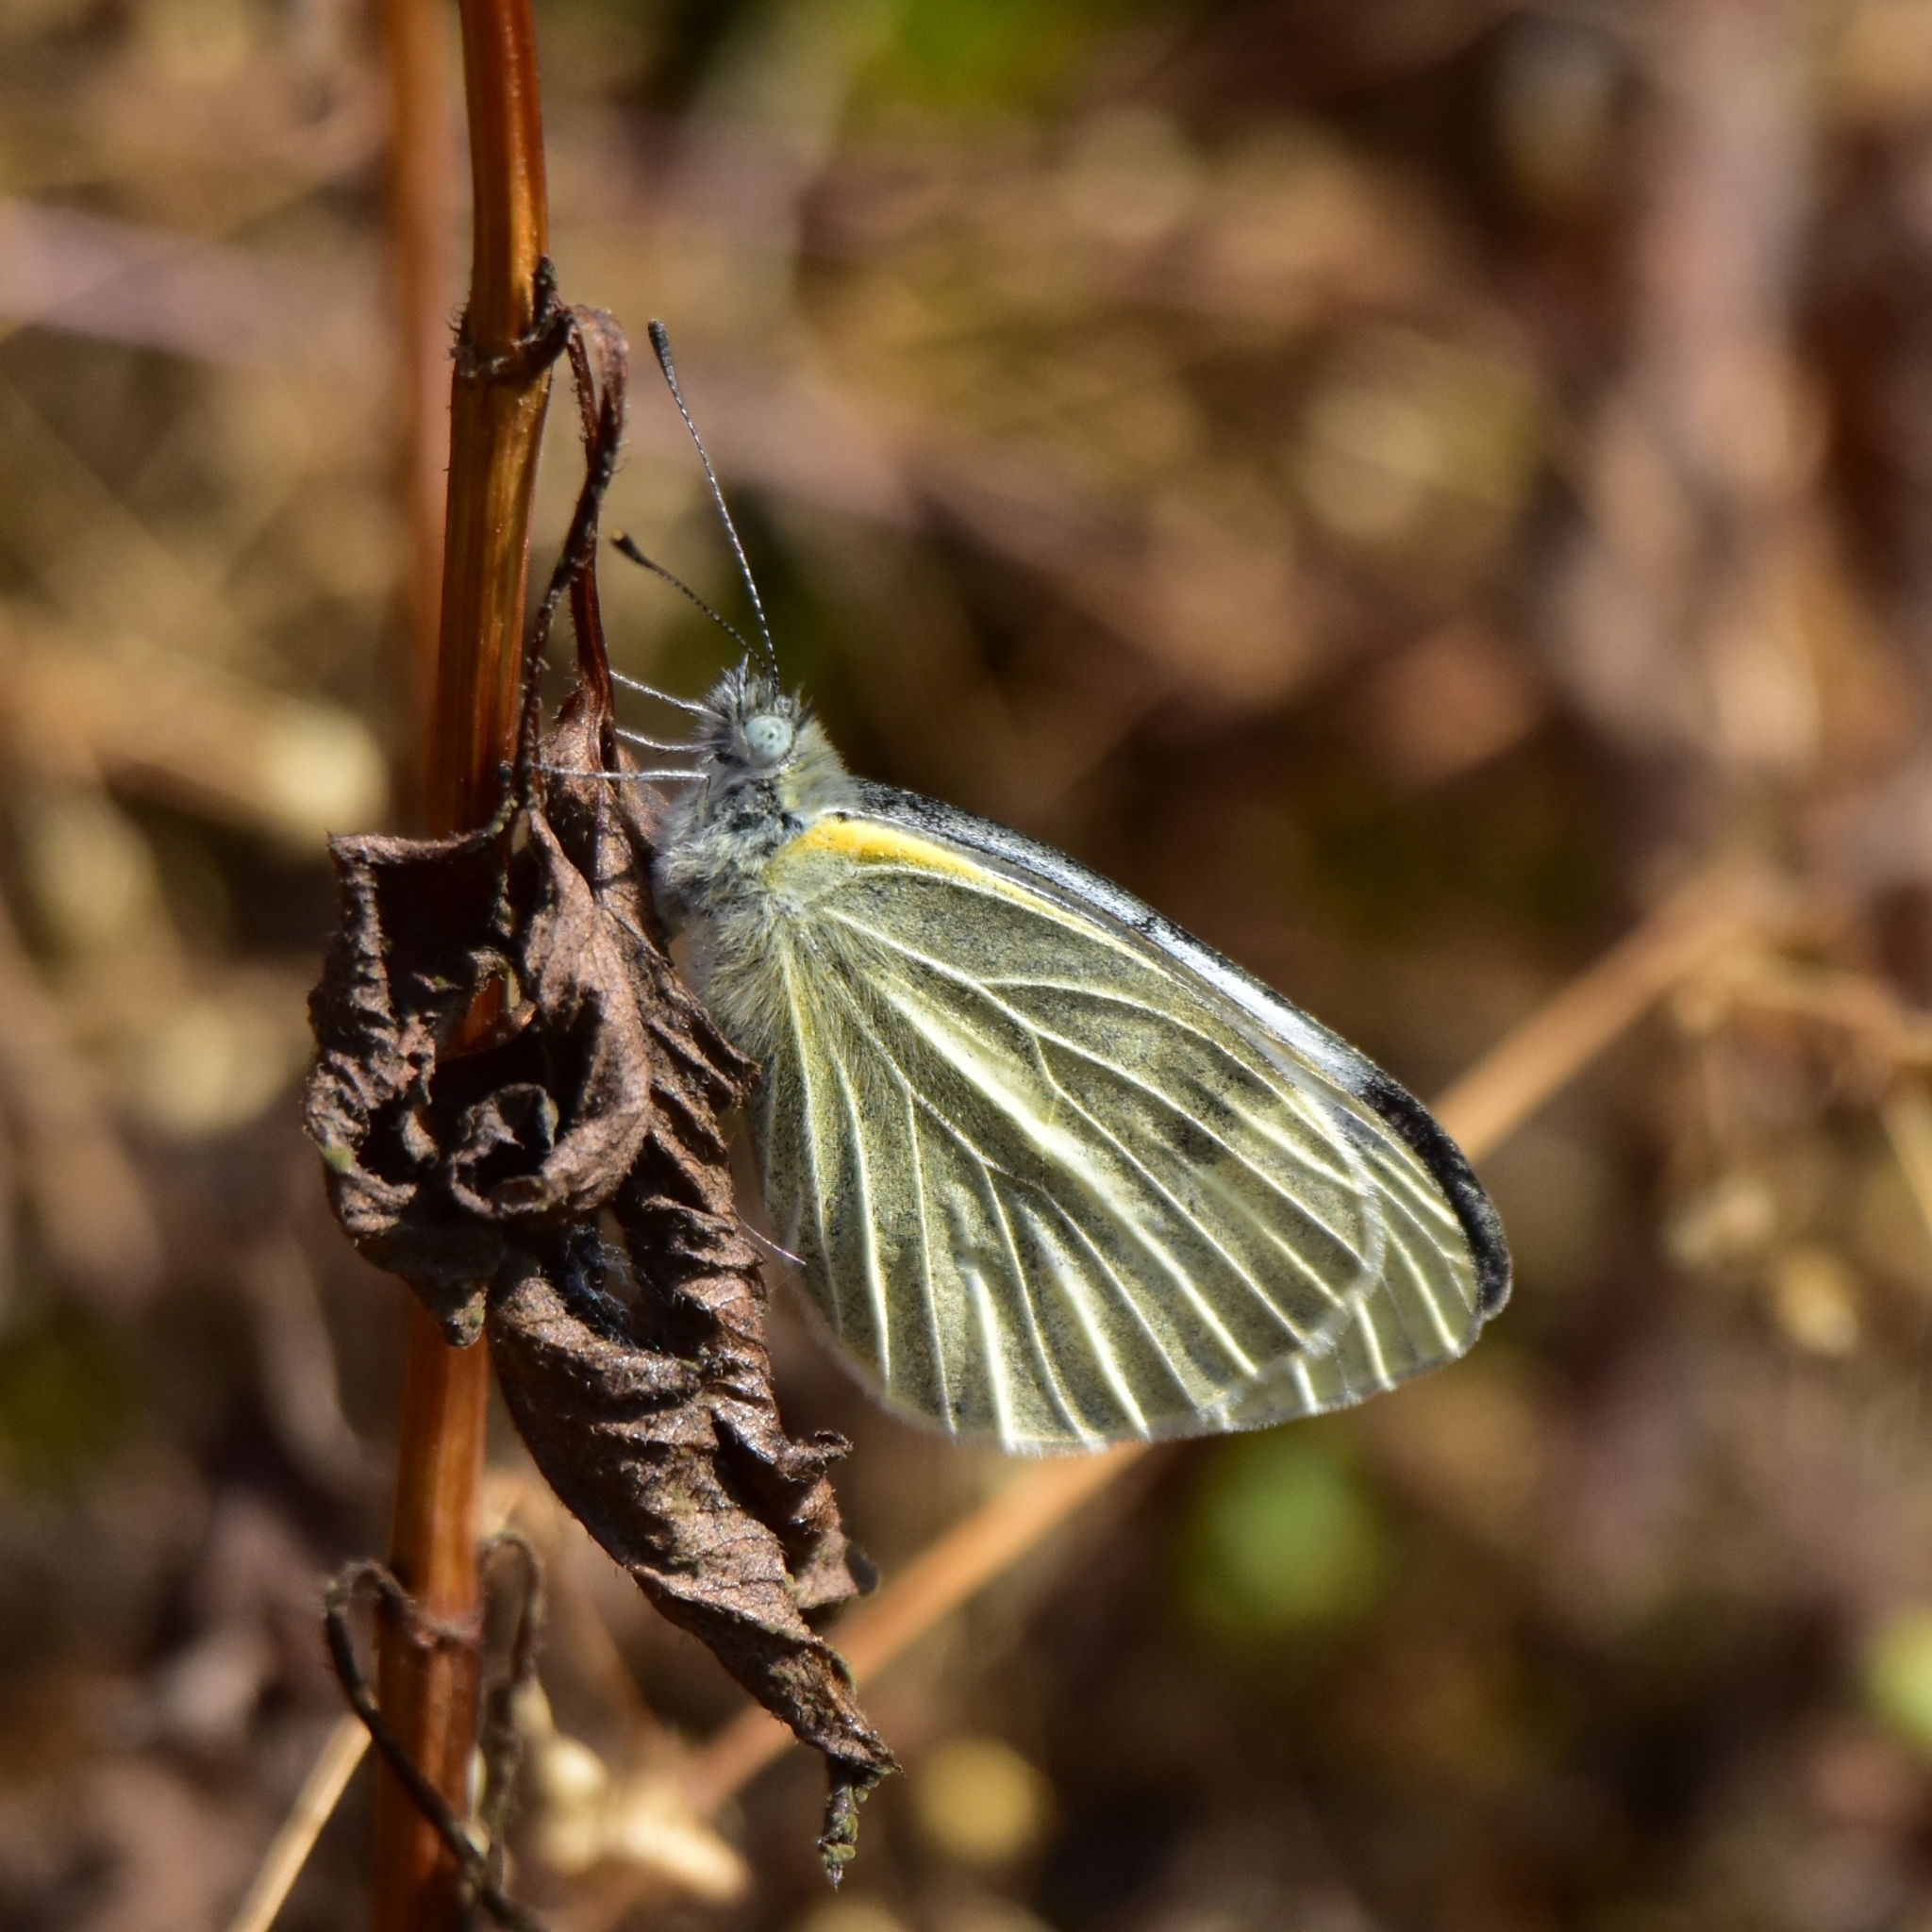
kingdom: Animalia
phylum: Arthropoda
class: Insecta
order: Lepidoptera
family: Pieridae
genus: Pieris
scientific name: Pieris canidia
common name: Indian cabbage white
